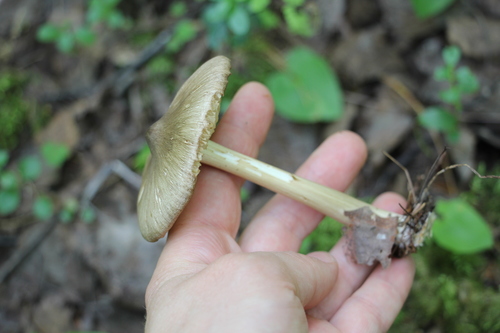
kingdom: Fungi
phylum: Basidiomycota
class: Agaricomycetes
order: Agaricales
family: Tricholomataceae
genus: Megacollybia
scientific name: Megacollybia platyphylla
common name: Whitelaced shank
